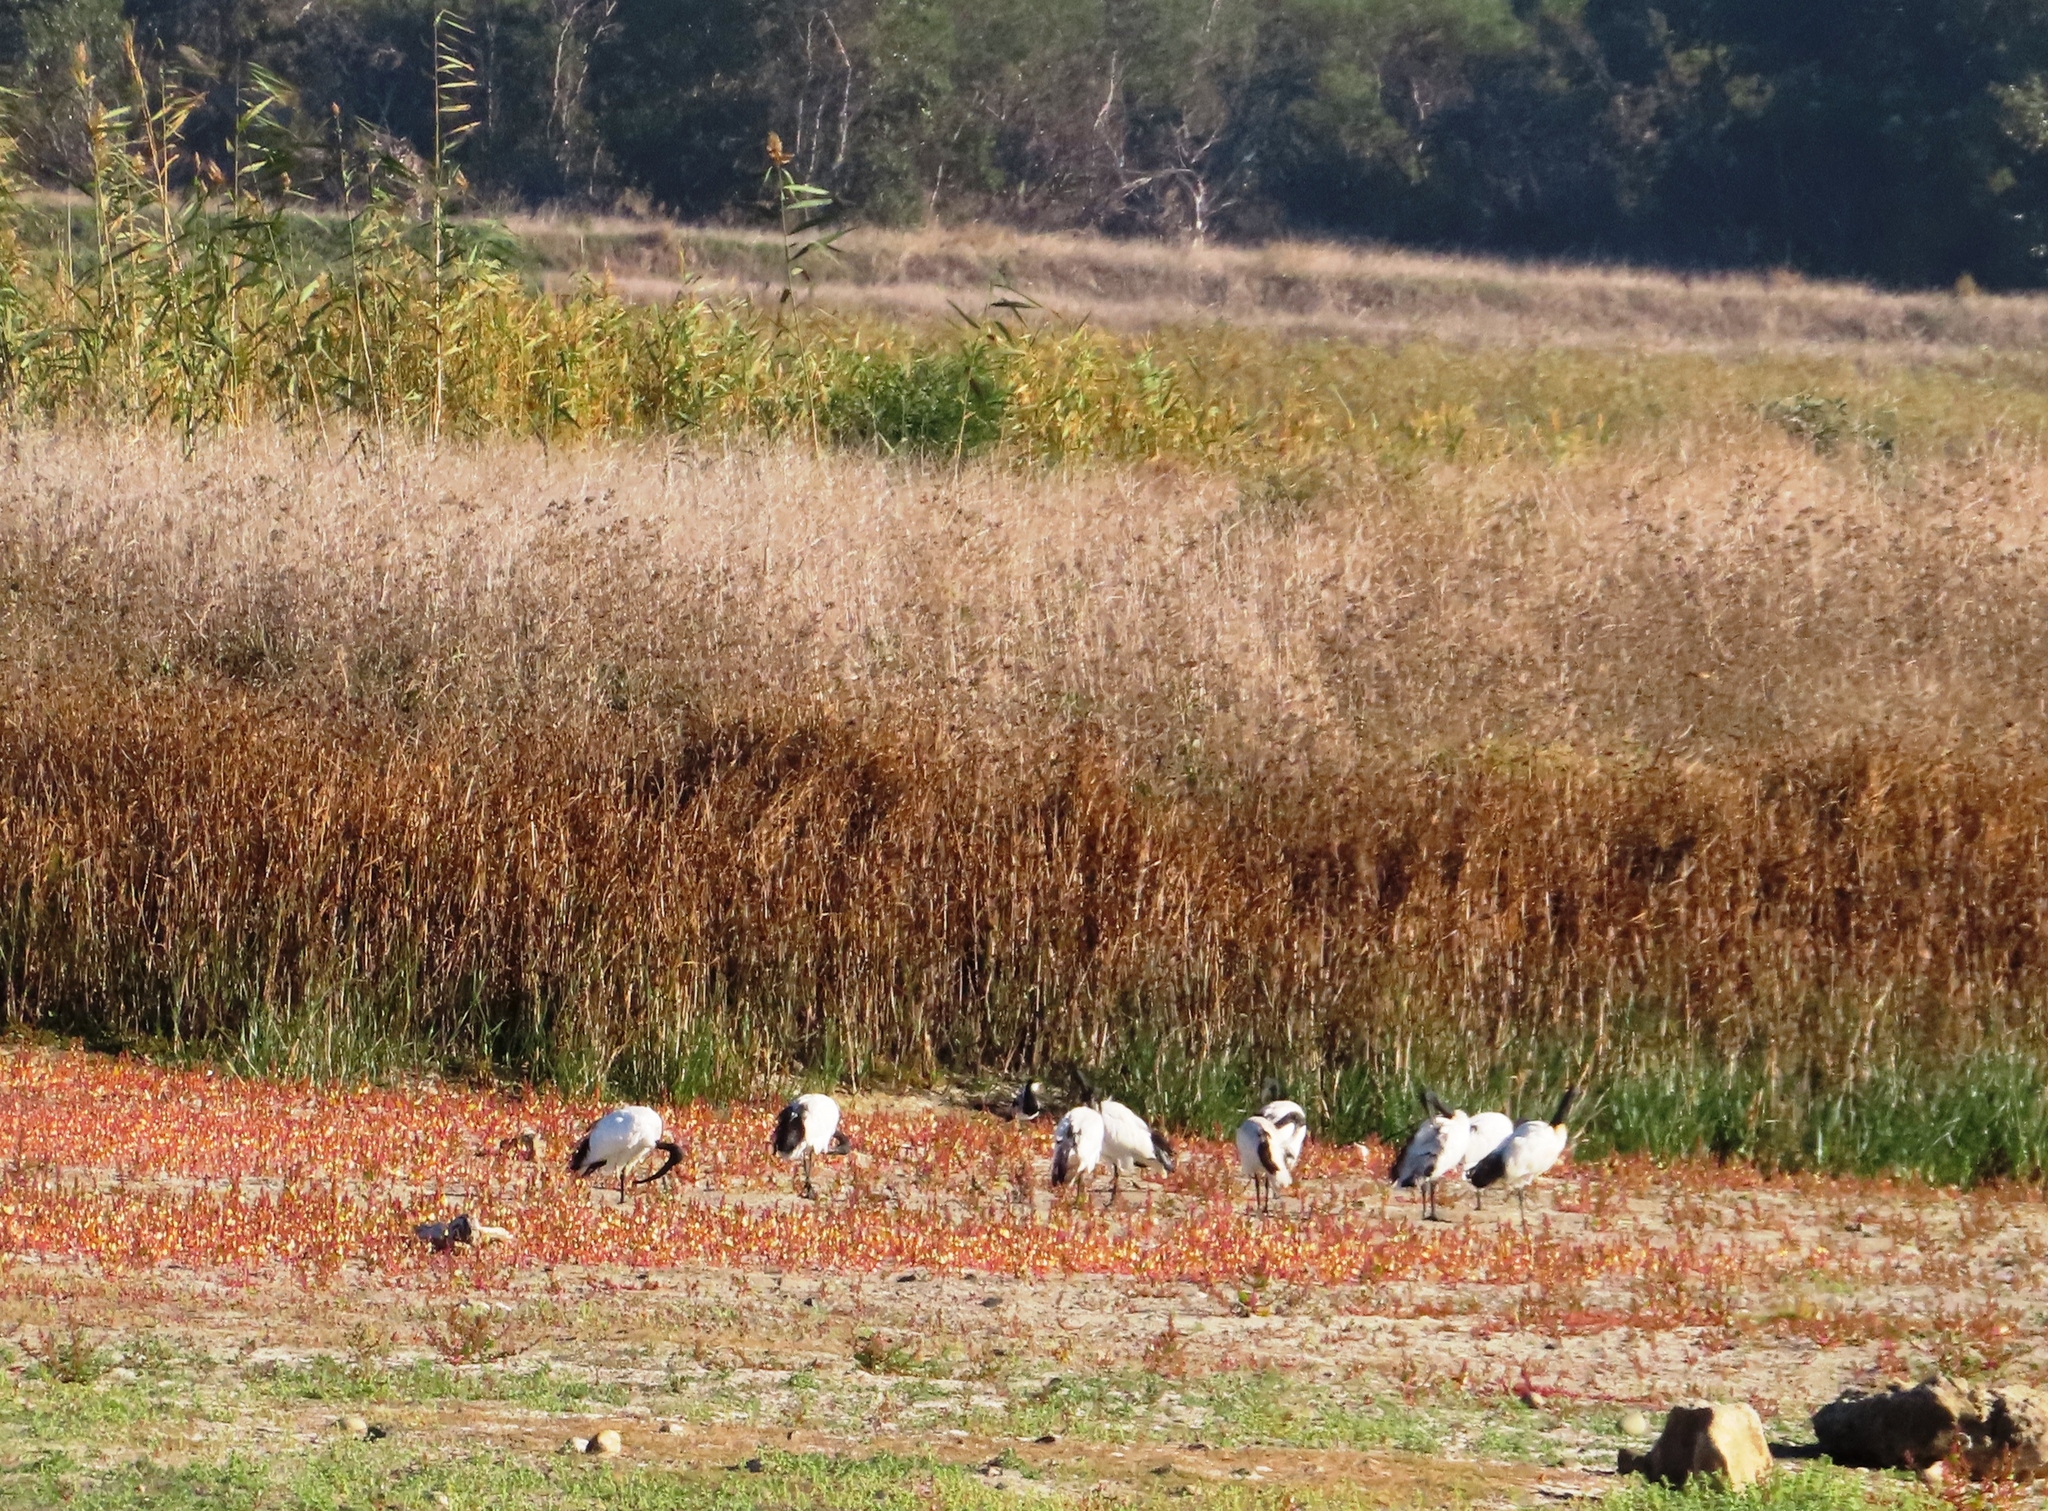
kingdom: Animalia
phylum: Chordata
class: Aves
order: Pelecaniformes
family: Threskiornithidae
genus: Threskiornis
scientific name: Threskiornis aethiopicus
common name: Sacred ibis
